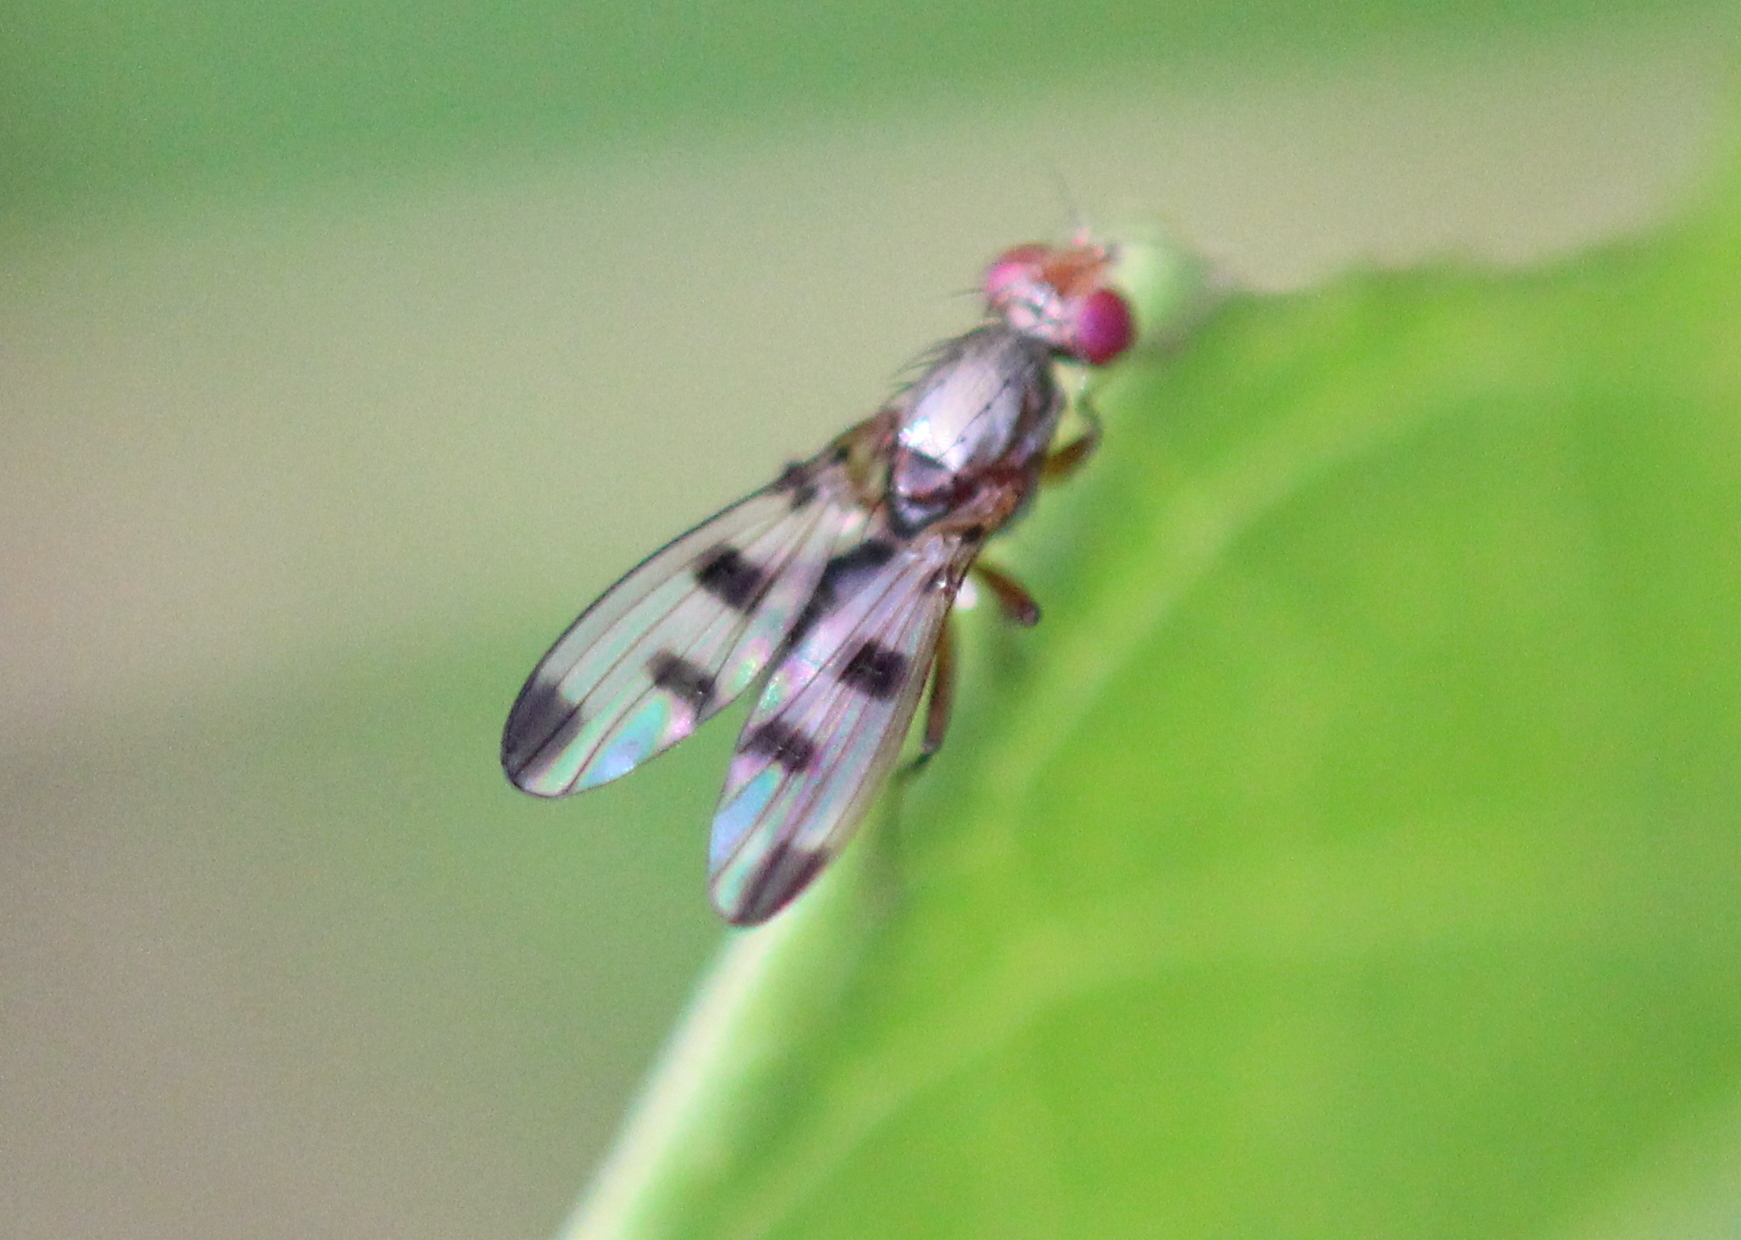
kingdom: Animalia
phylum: Arthropoda
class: Insecta
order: Diptera
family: Opomyzidae
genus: Geomyza
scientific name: Geomyza tripunctata
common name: Cereal fly
